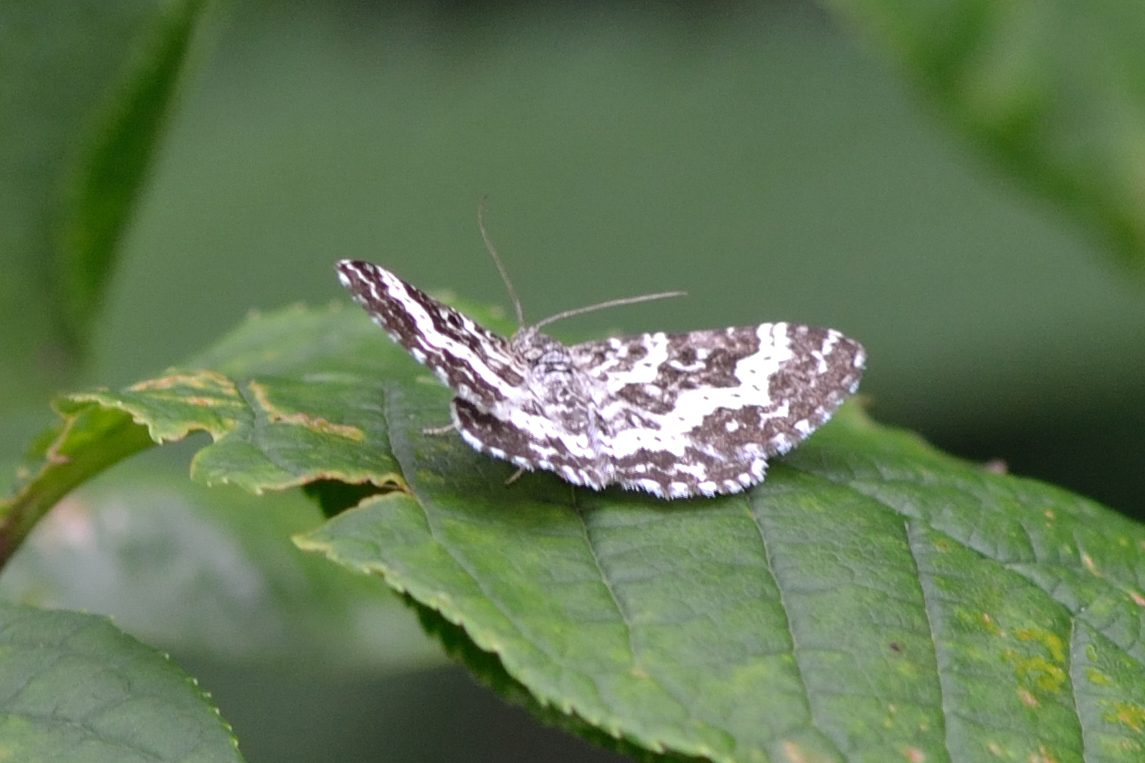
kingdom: Animalia
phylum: Arthropoda
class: Insecta
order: Lepidoptera
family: Geometridae
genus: Epirrhoe
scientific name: Epirrhoe tristata
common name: Small argent & sable
